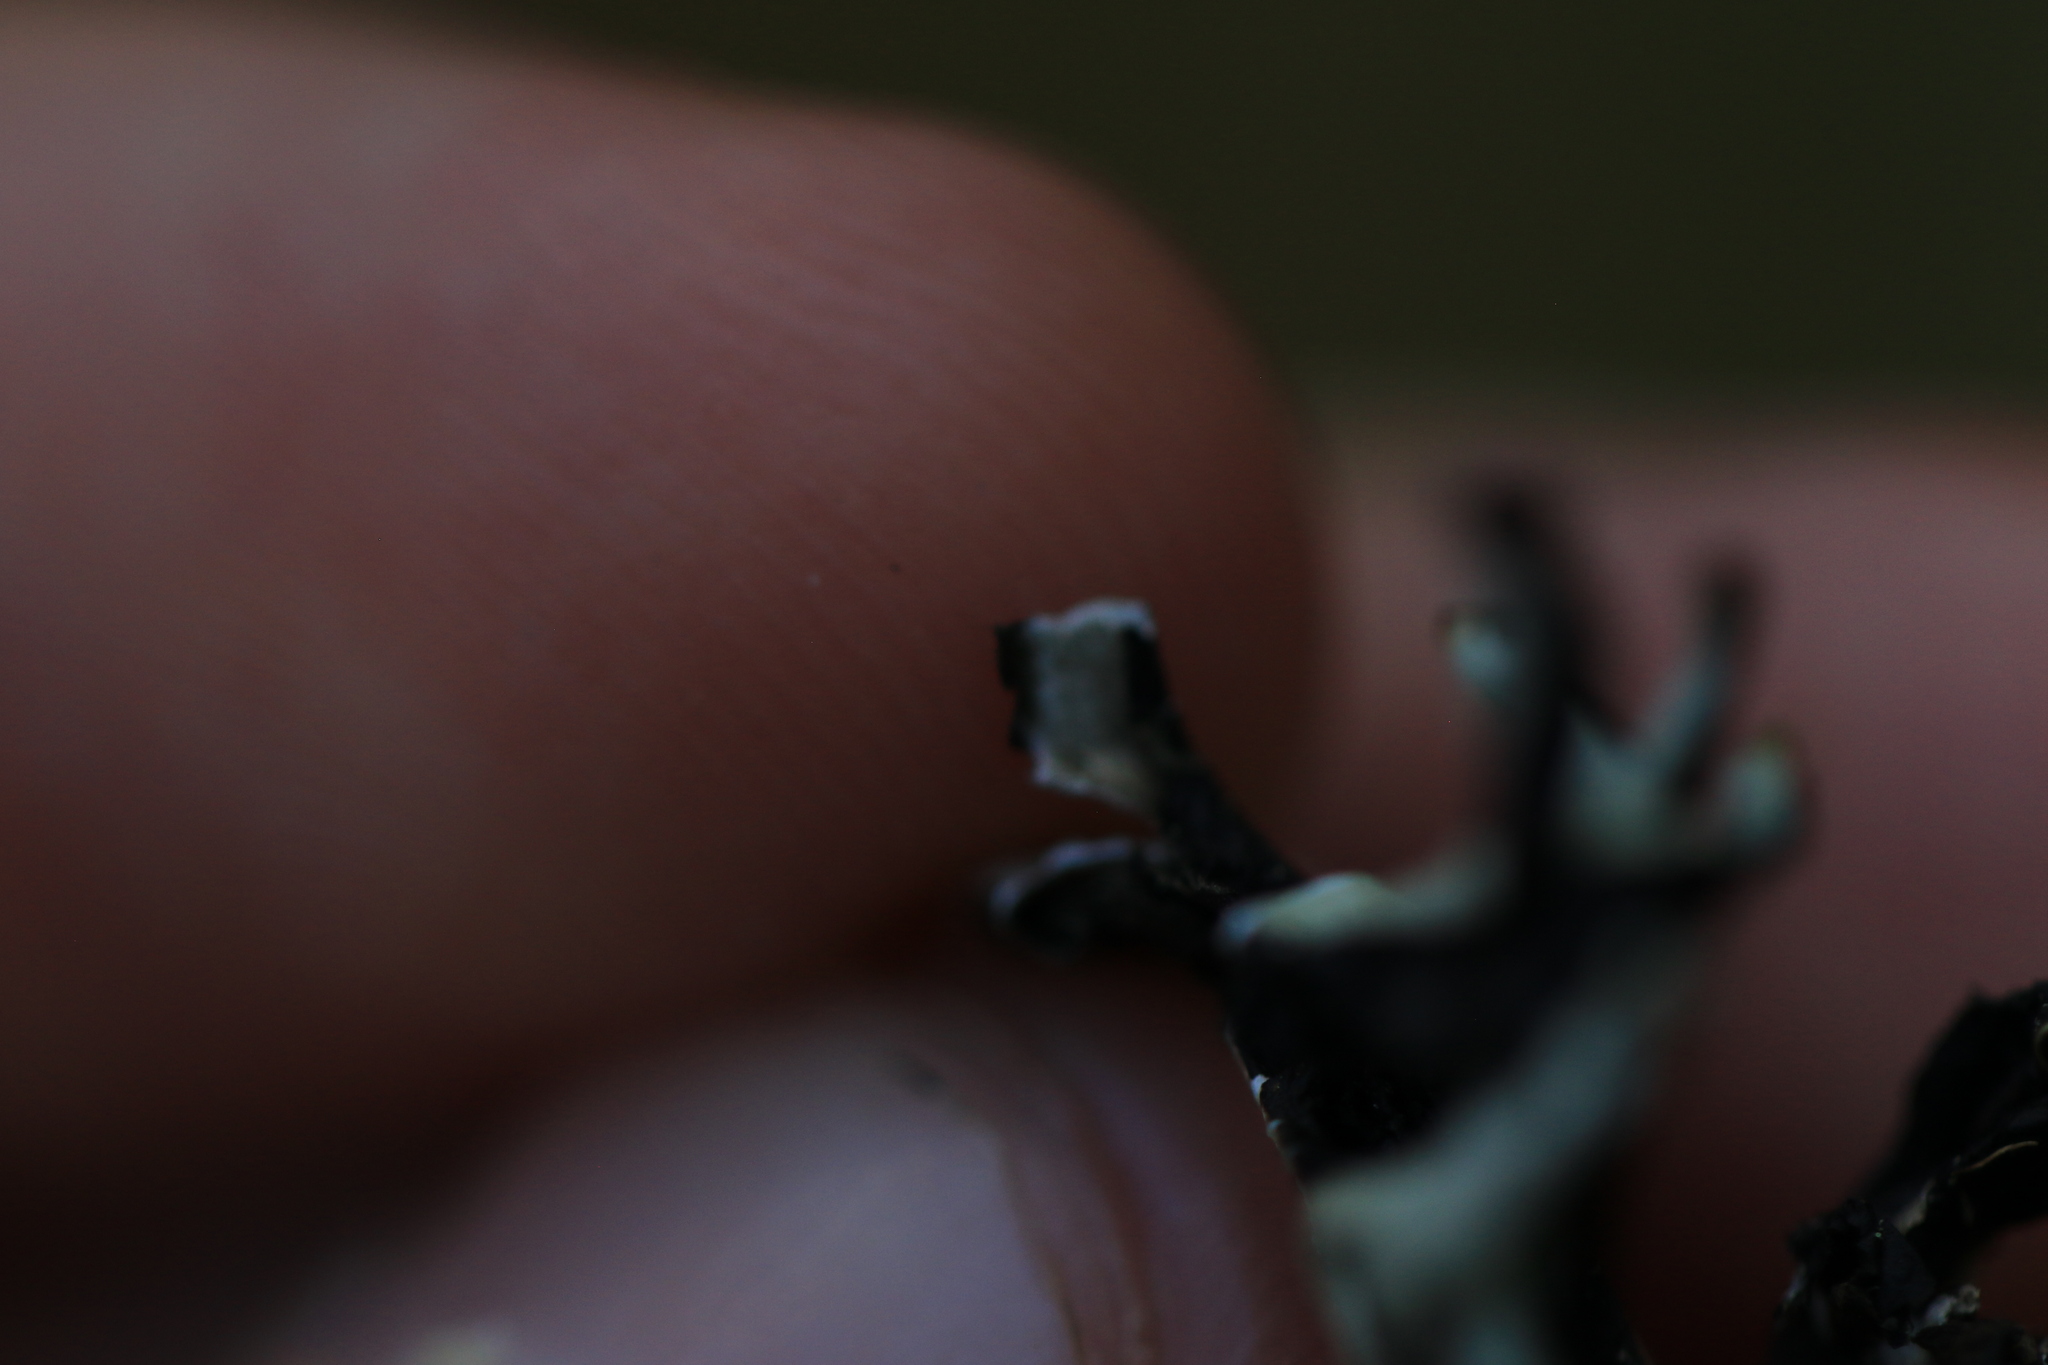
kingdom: Fungi
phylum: Ascomycota
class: Lecanoromycetes
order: Lecanorales
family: Parmeliaceae
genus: Hypogymnia
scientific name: Hypogymnia imshaugii
